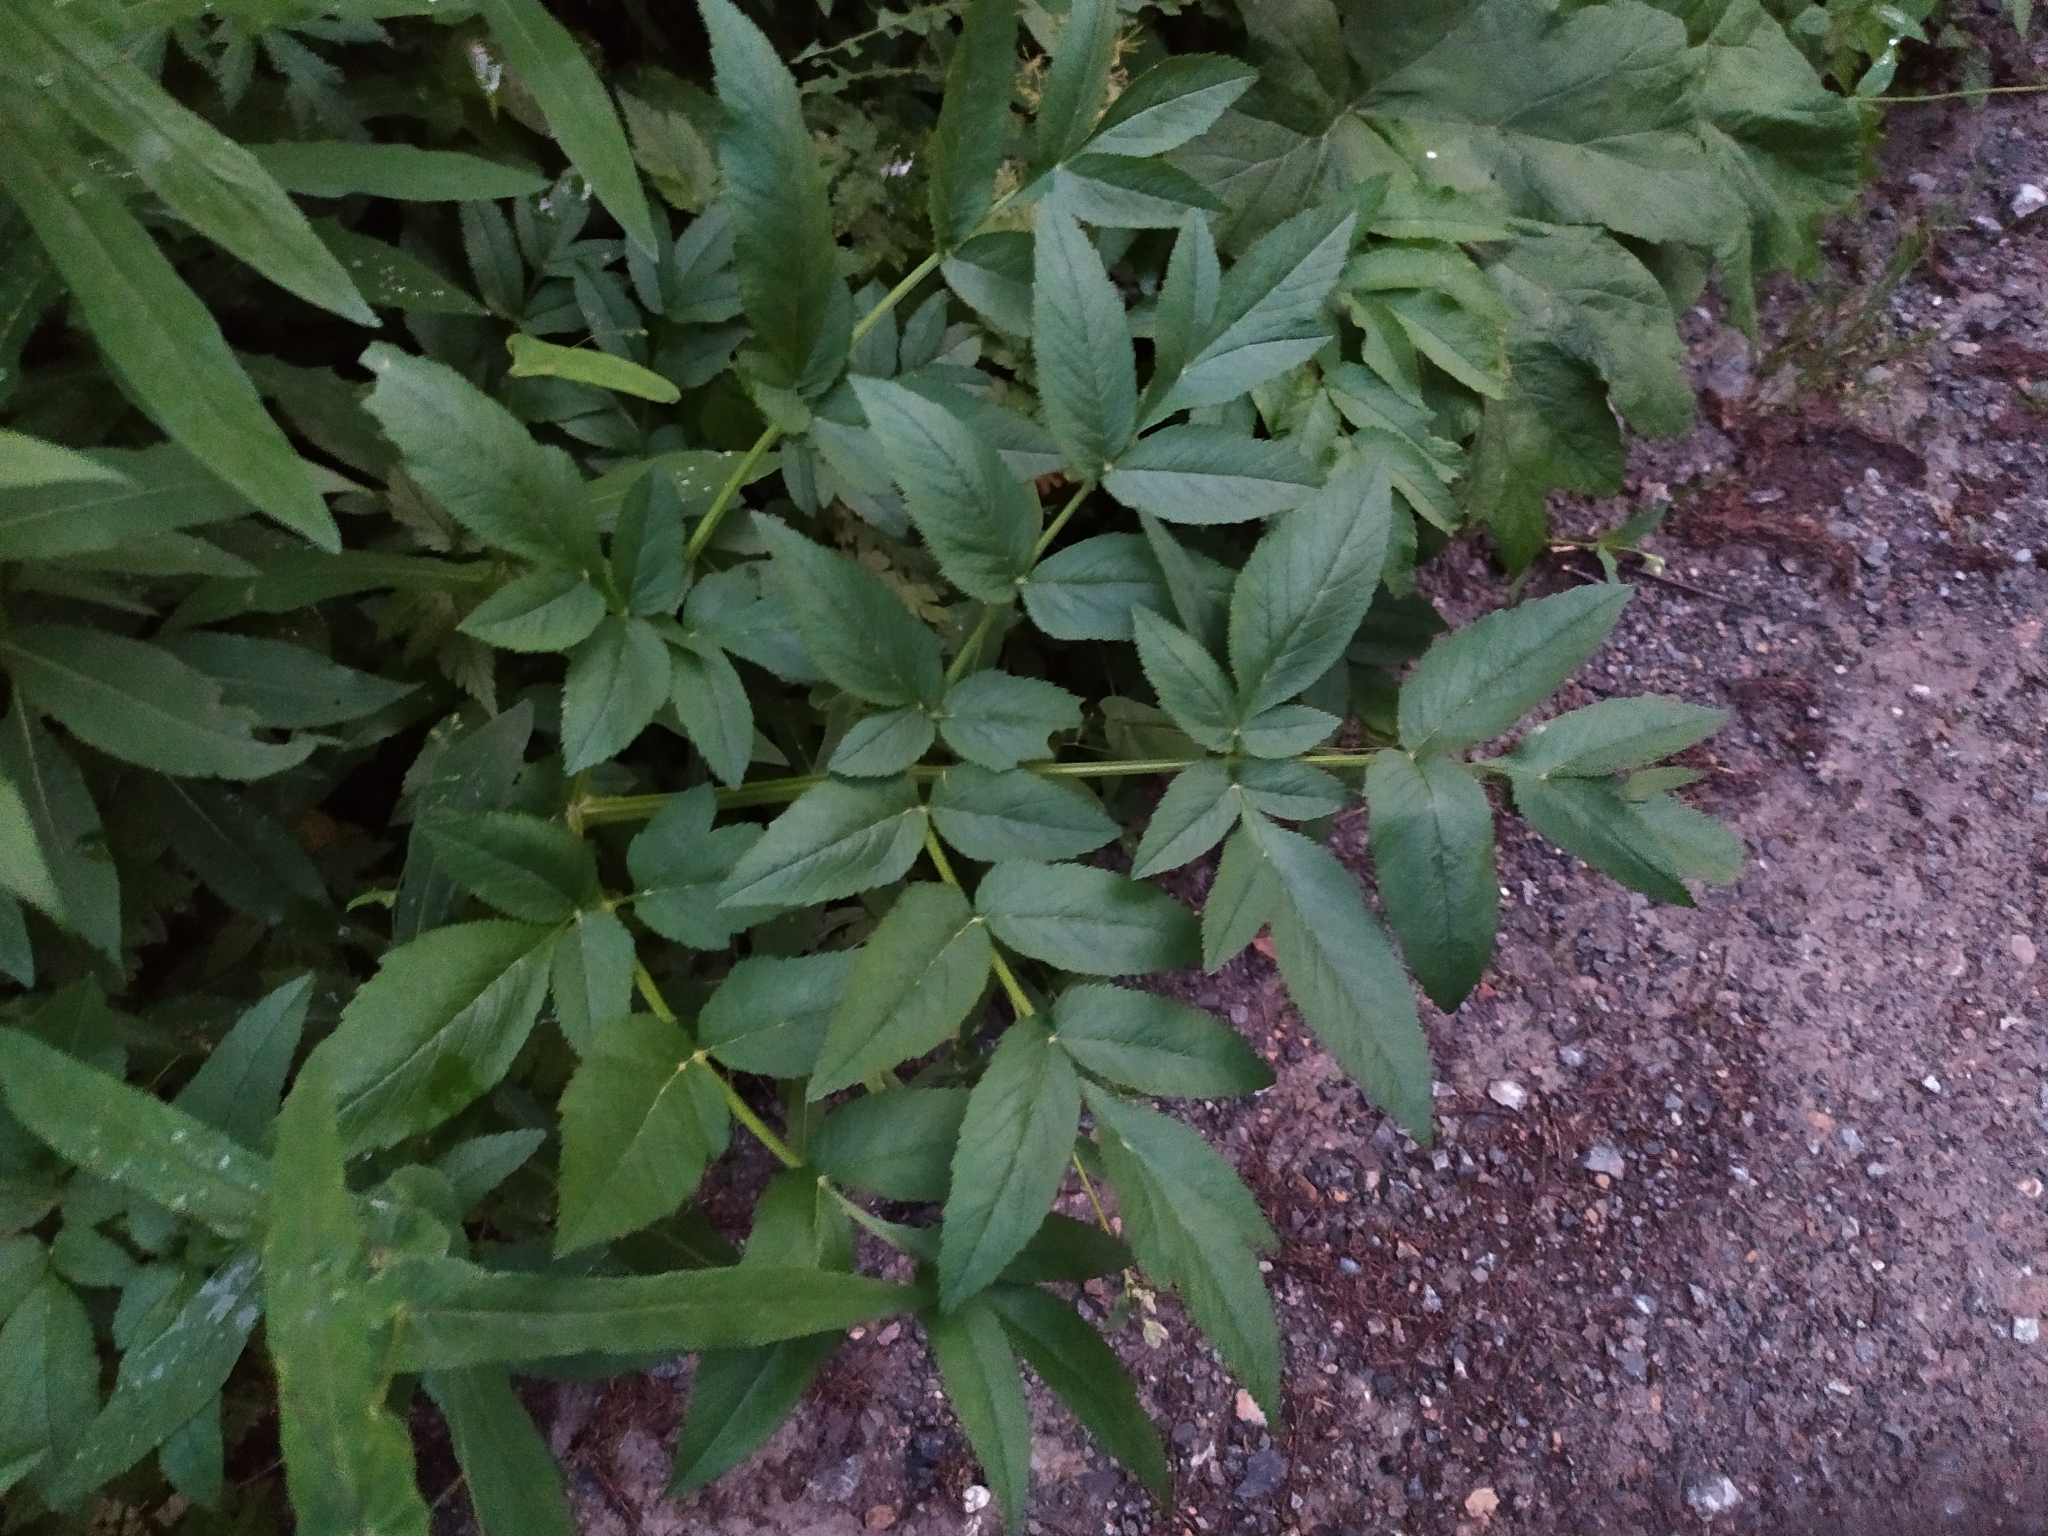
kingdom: Plantae
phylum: Tracheophyta
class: Magnoliopsida
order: Apiales
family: Apiaceae
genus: Angelica
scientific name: Angelica sylvestris
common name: Wild angelica
